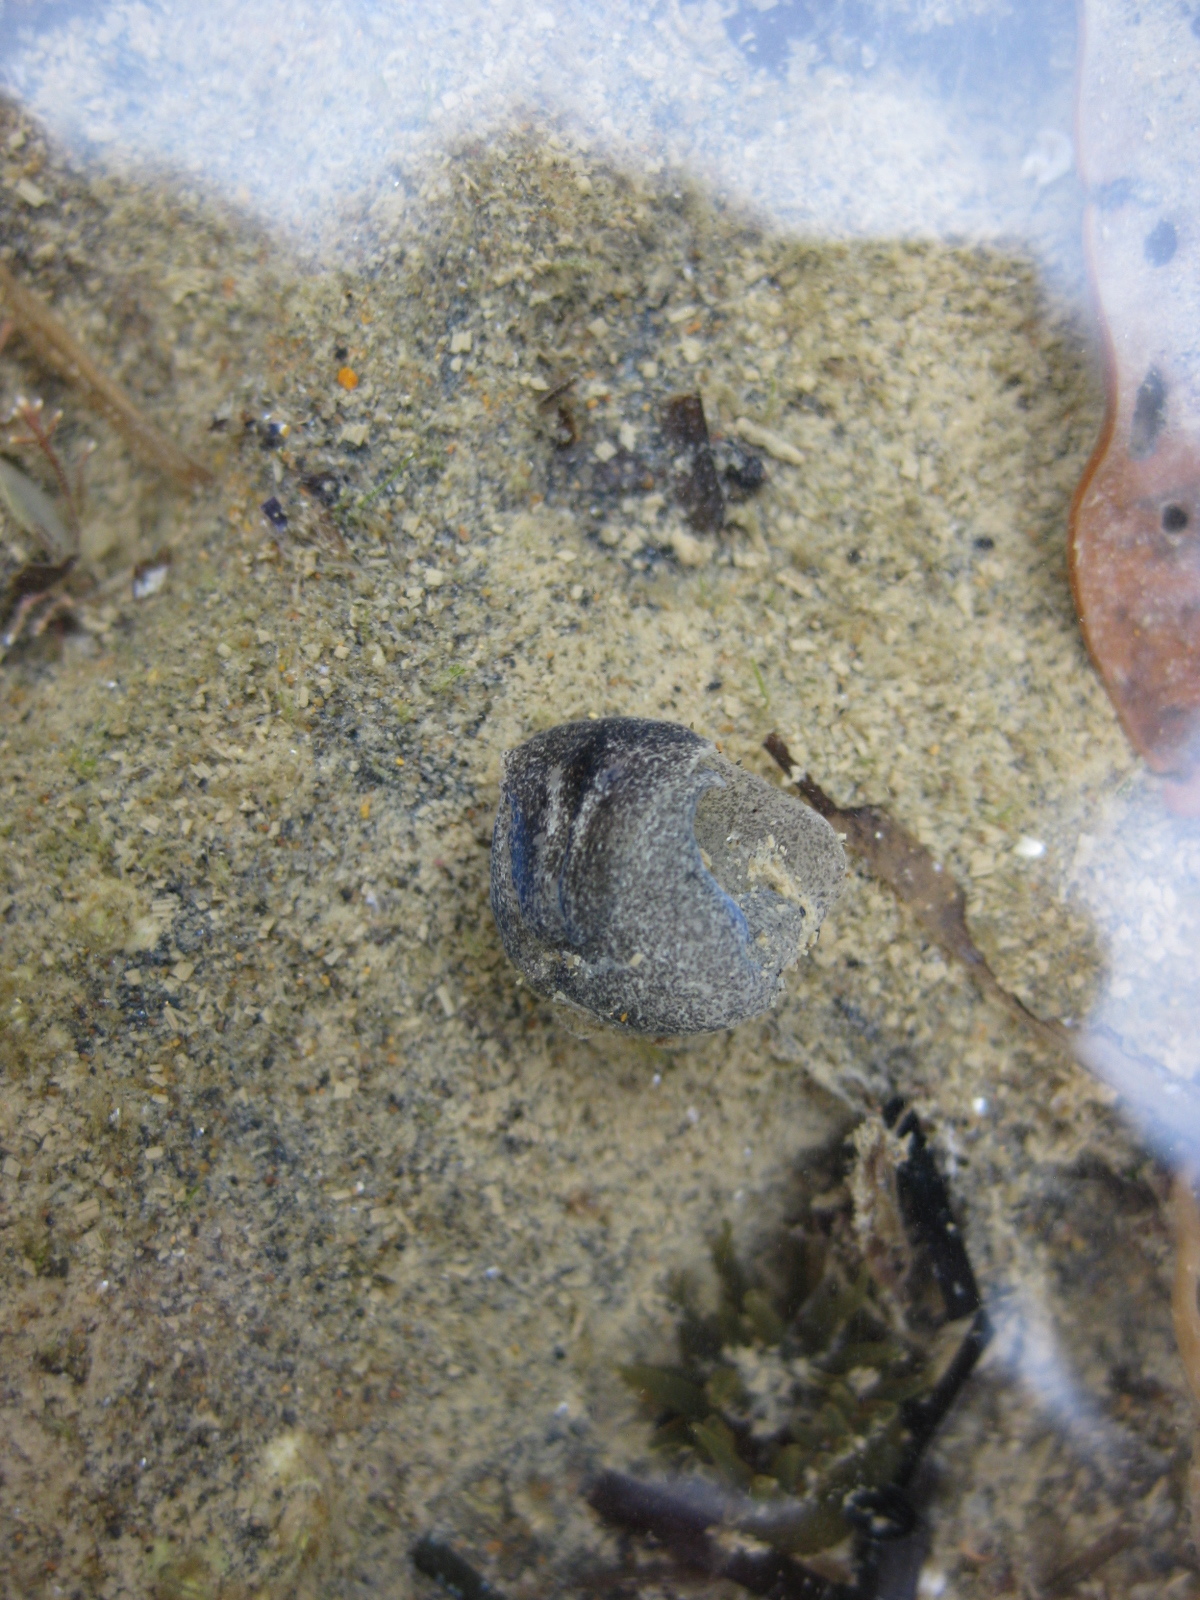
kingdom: Animalia
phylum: Mollusca
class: Gastropoda
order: Cephalaspidea
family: Haminoeidae
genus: Papawera
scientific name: Papawera zelandiae
